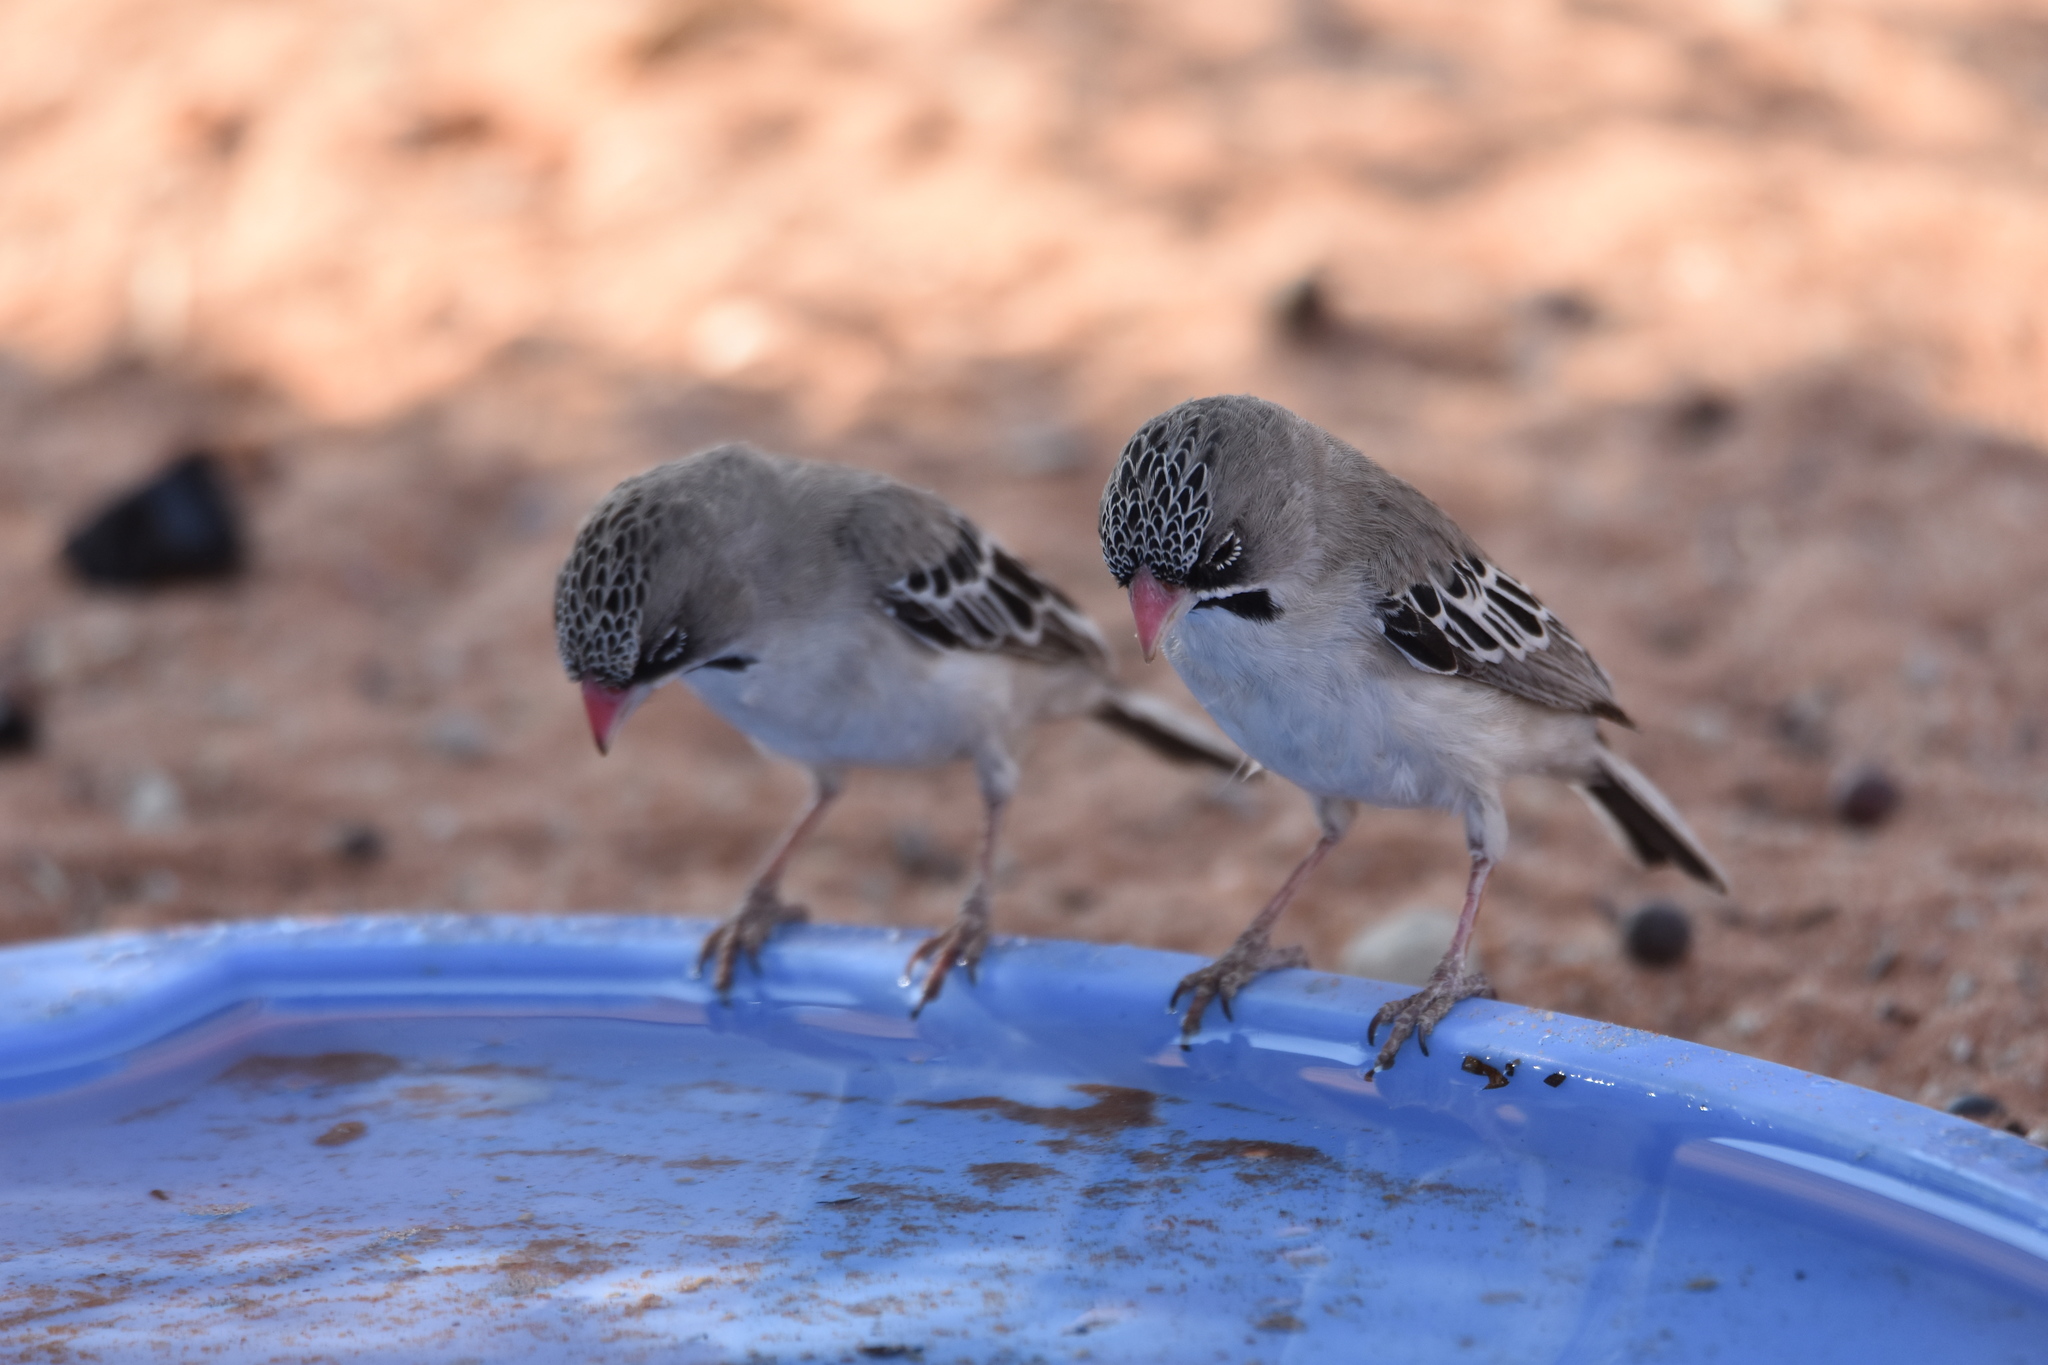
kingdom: Animalia
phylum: Chordata
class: Aves
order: Passeriformes
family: Ploceidae
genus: Sporopipes
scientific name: Sporopipes squamifrons
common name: Scaly-feathered weaver
